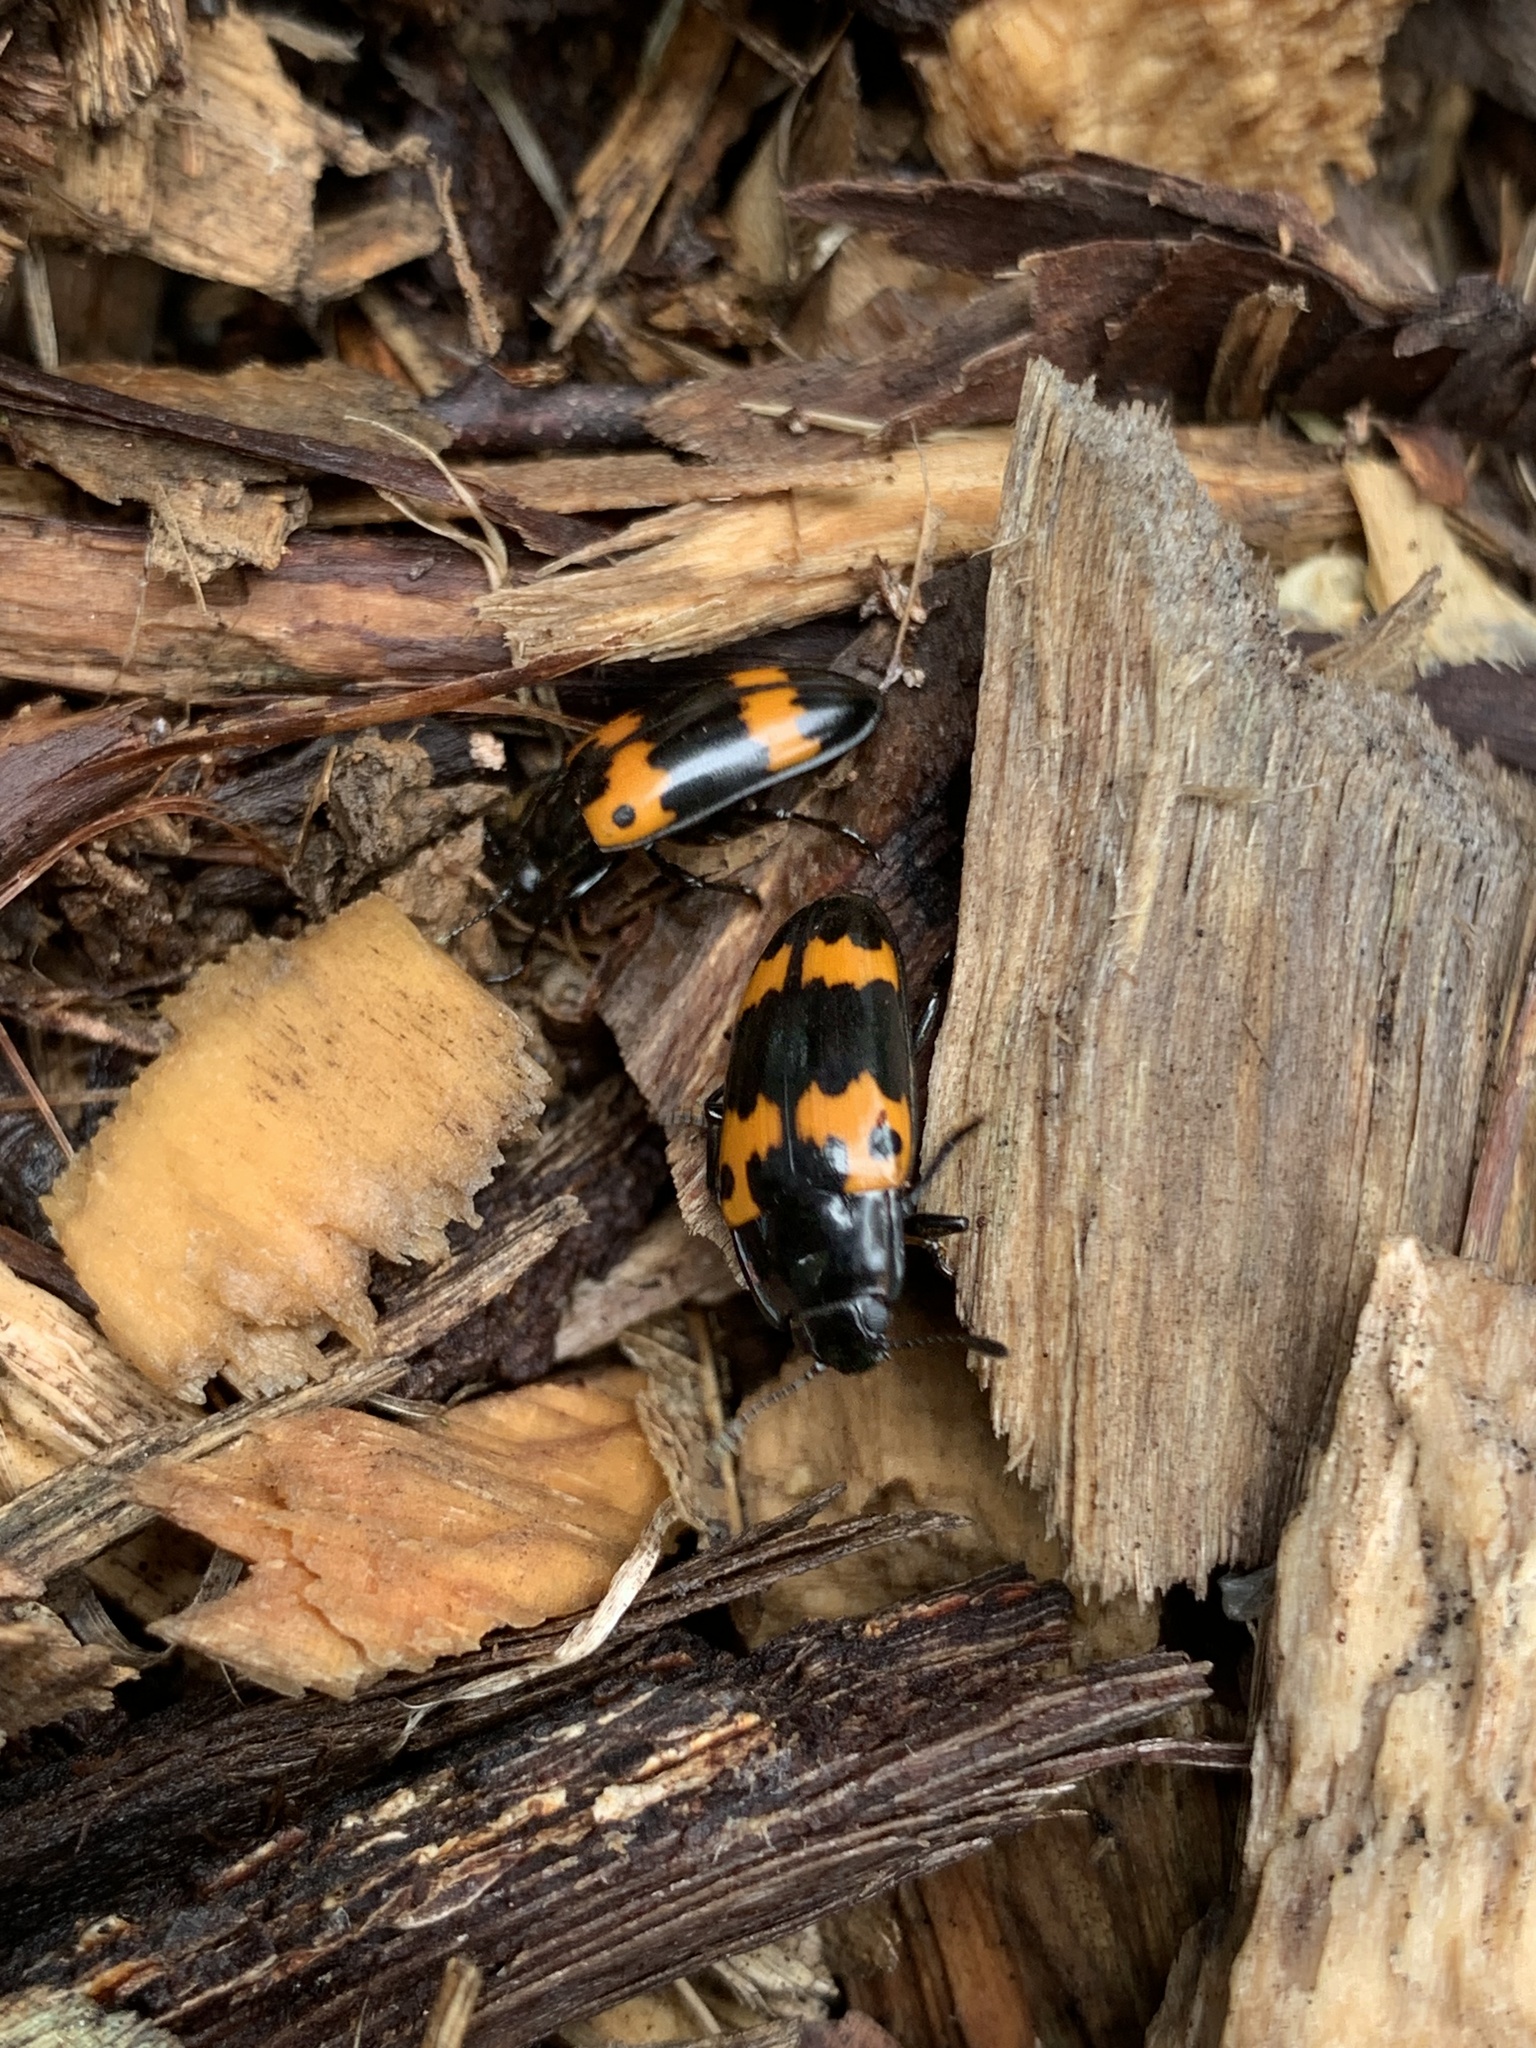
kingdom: Animalia
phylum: Arthropoda
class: Insecta
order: Coleoptera
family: Erotylidae
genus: Megalodacne
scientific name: Megalodacne fasciata
